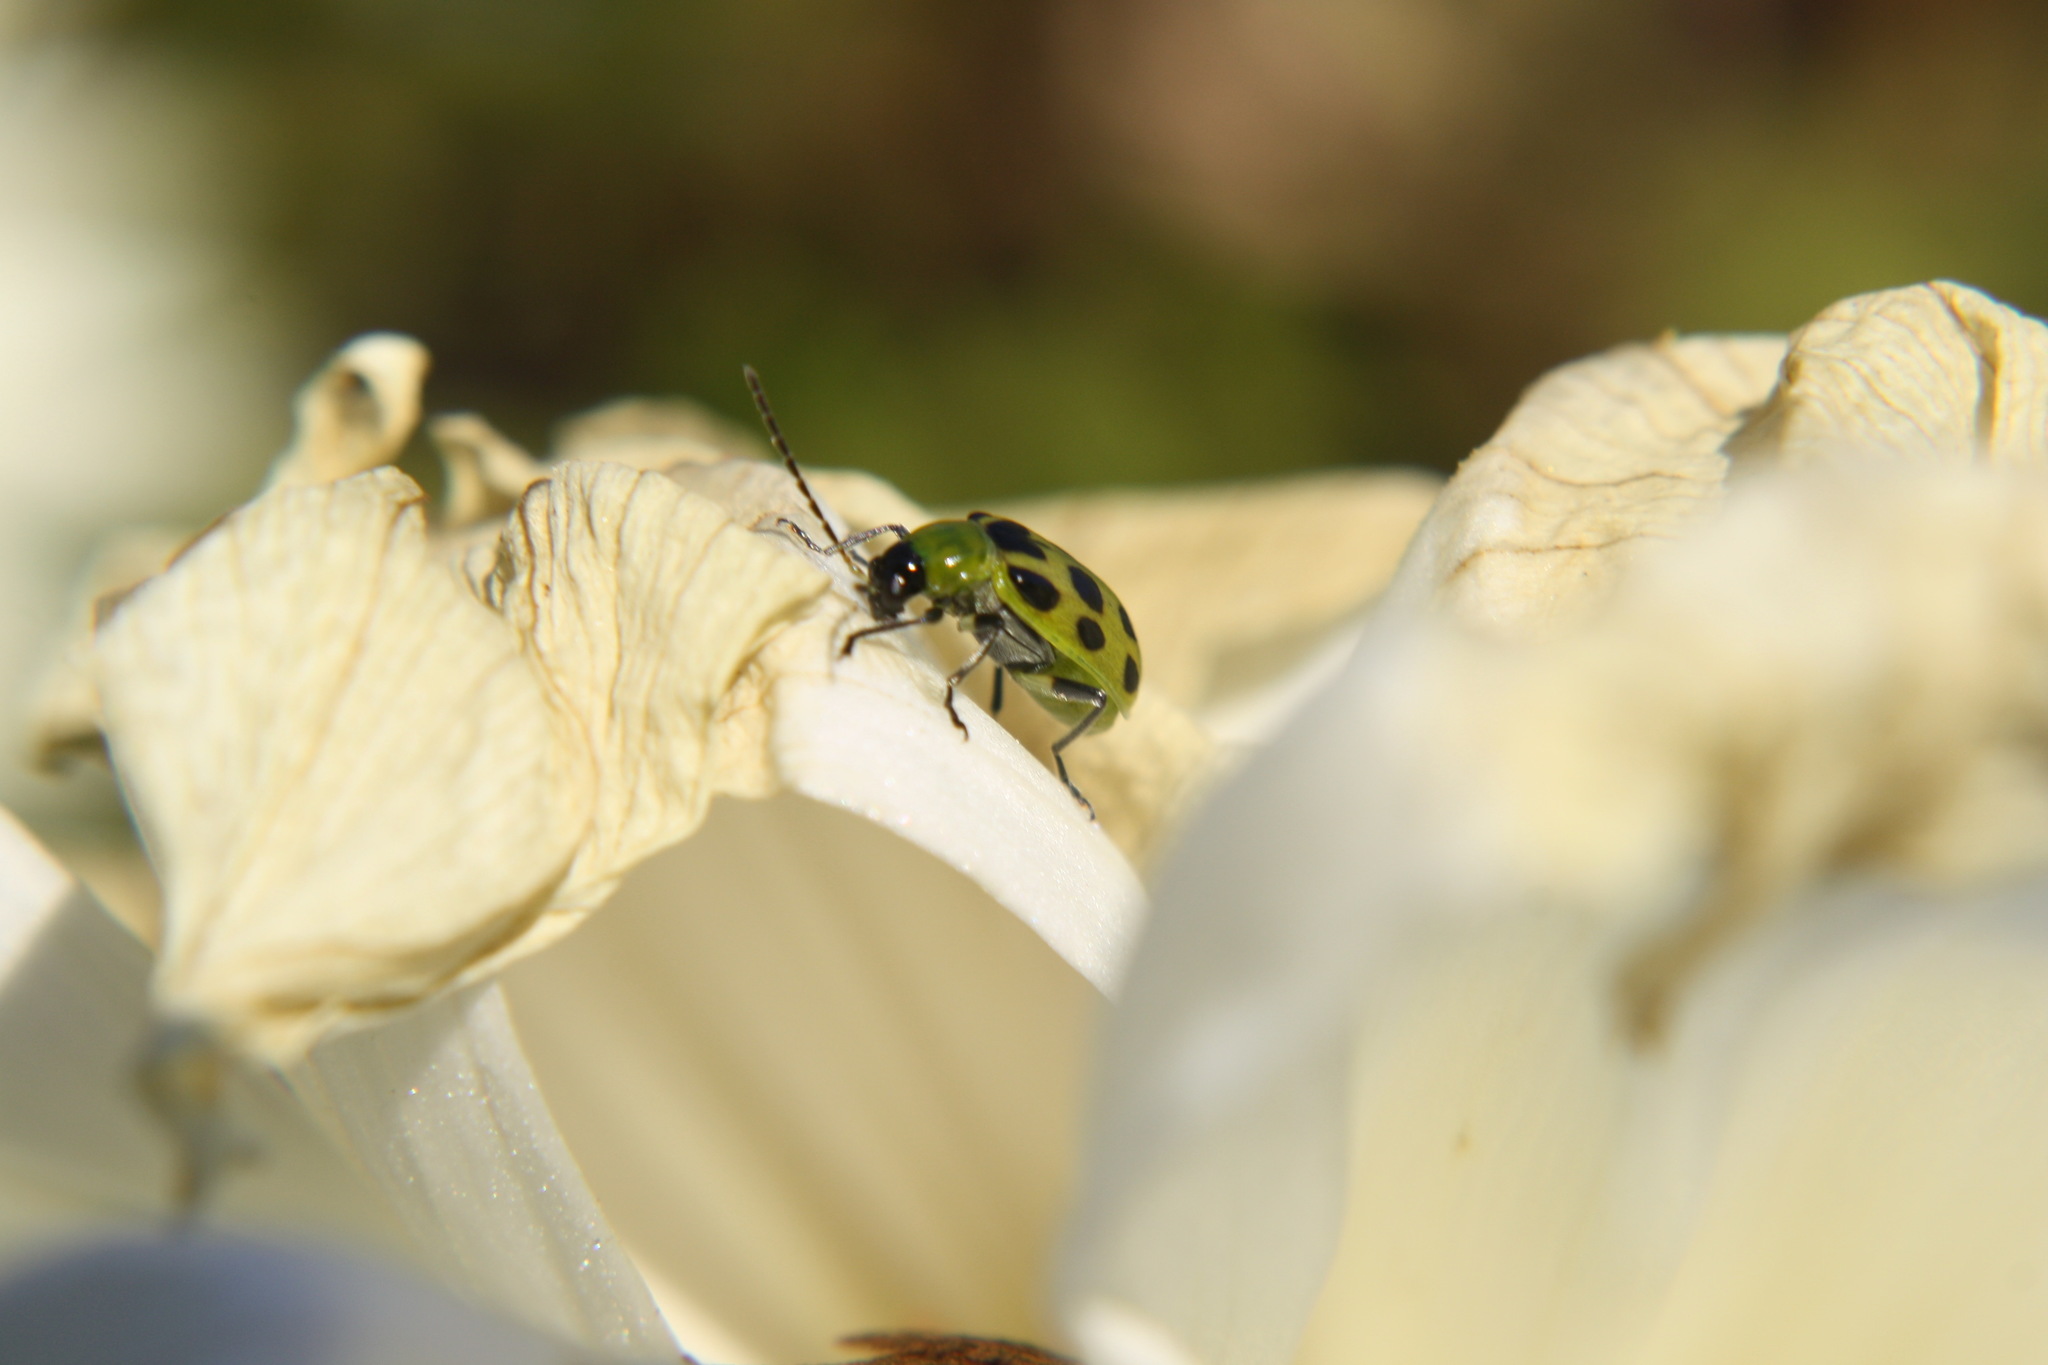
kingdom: Animalia
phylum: Arthropoda
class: Insecta
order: Coleoptera
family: Chrysomelidae
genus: Diabrotica
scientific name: Diabrotica undecimpunctata
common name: Spotted cucumber beetle
